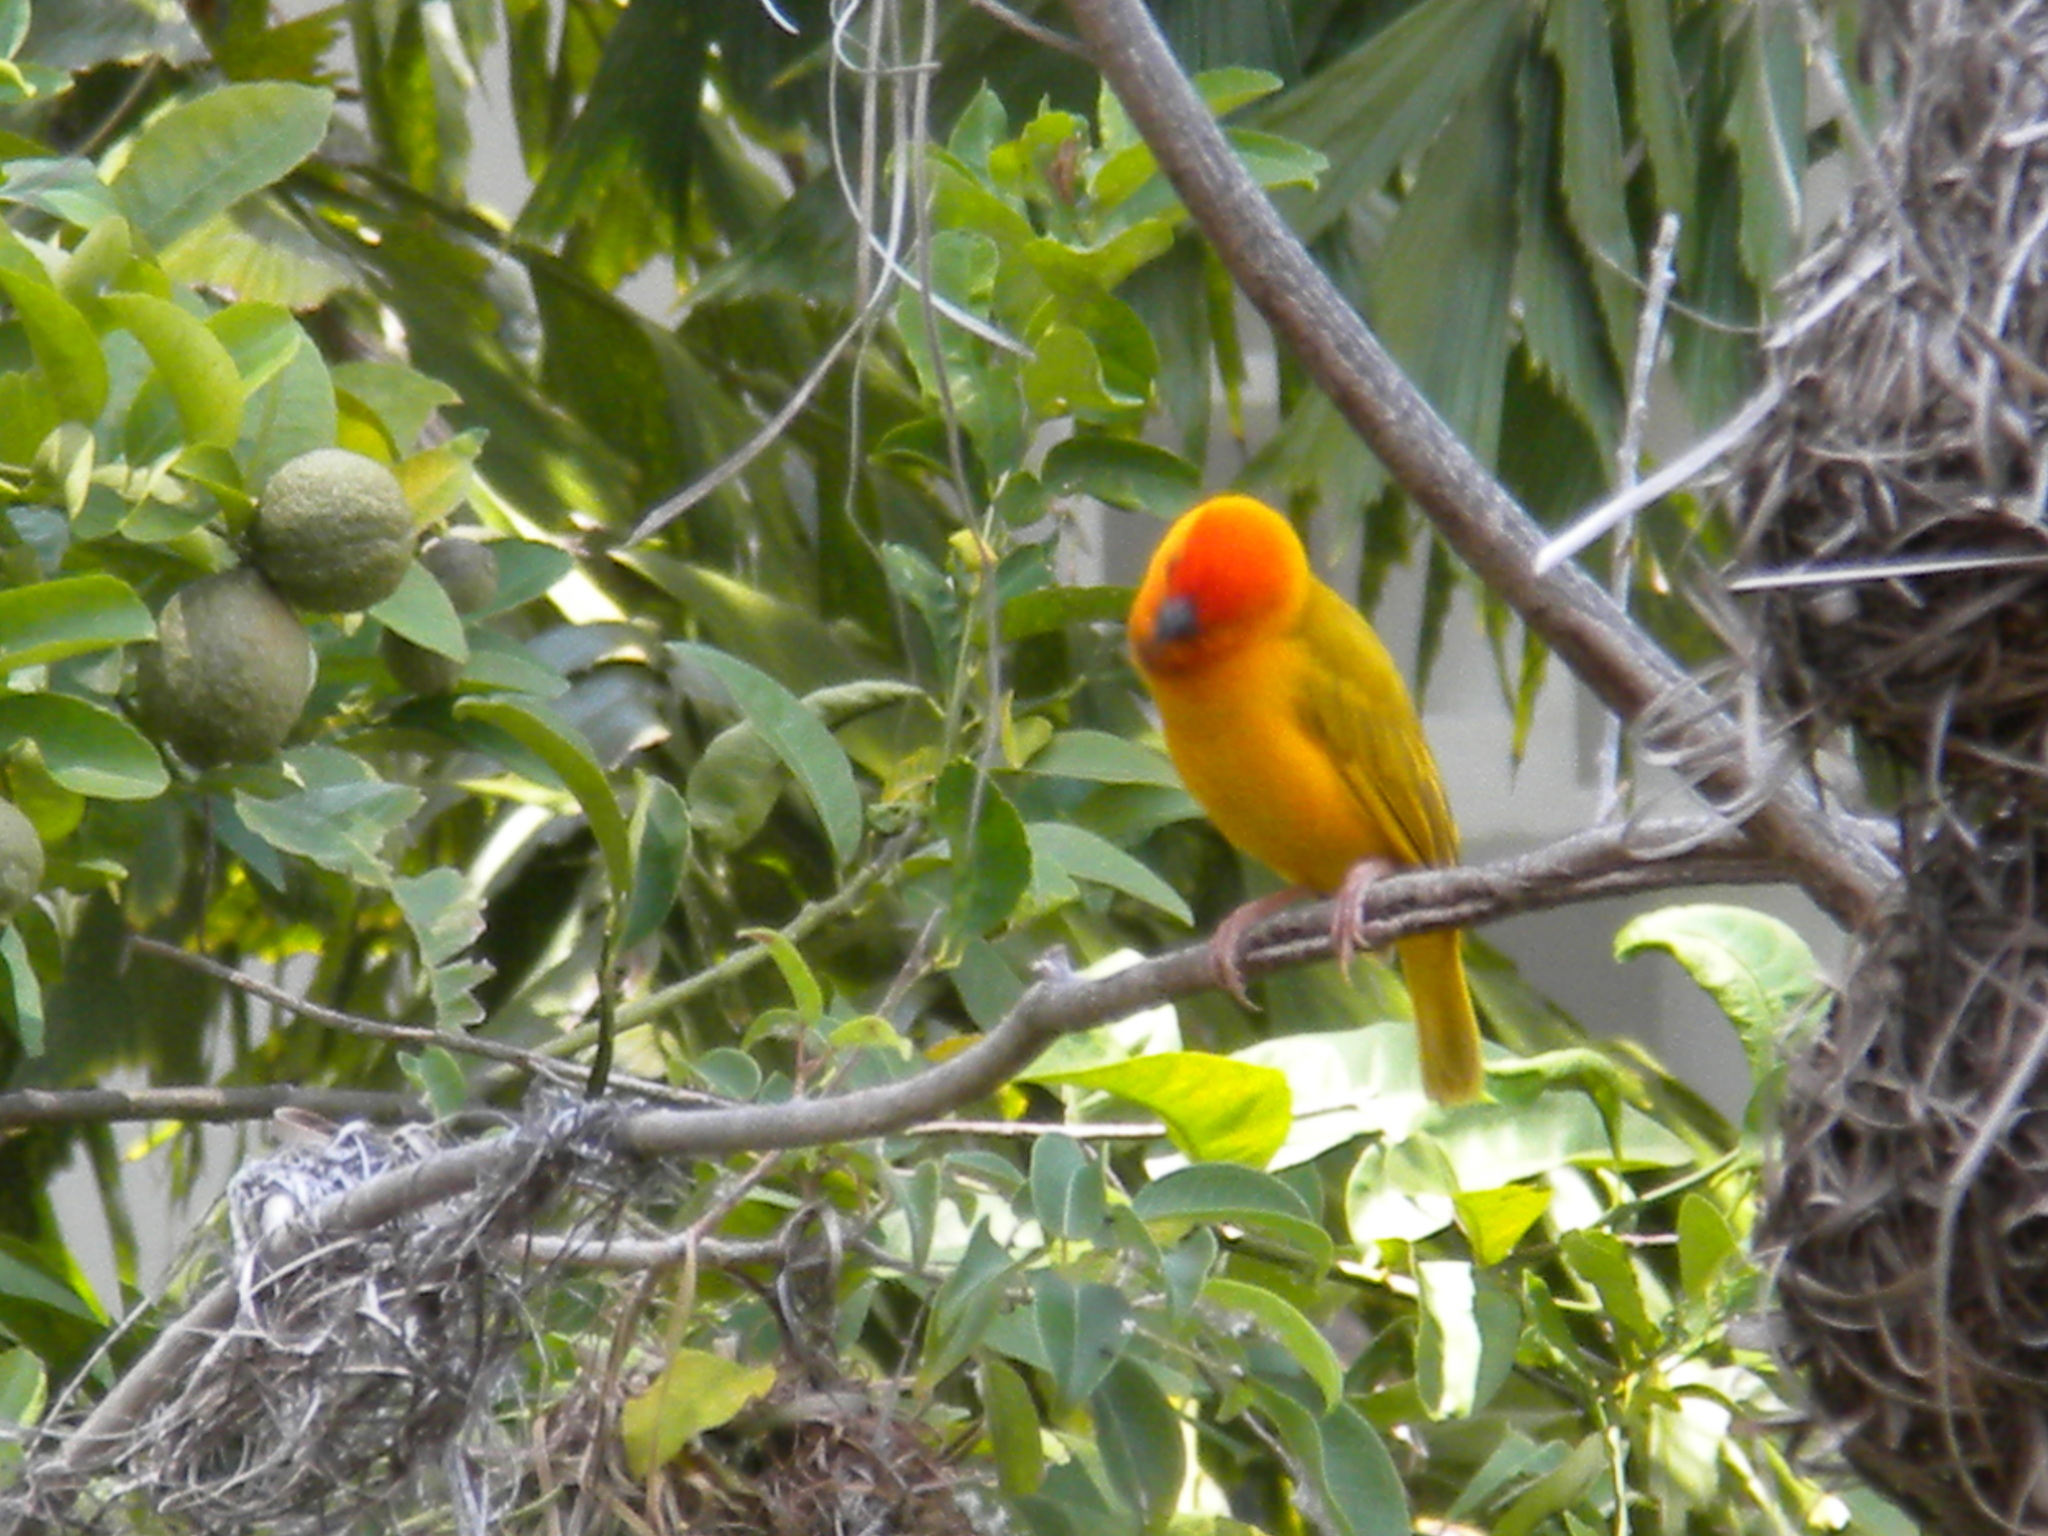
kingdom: Animalia
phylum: Chordata
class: Aves
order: Passeriformes
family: Ploceidae
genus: Ploceus
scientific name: Ploceus bojeri
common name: Golden palm weaver
